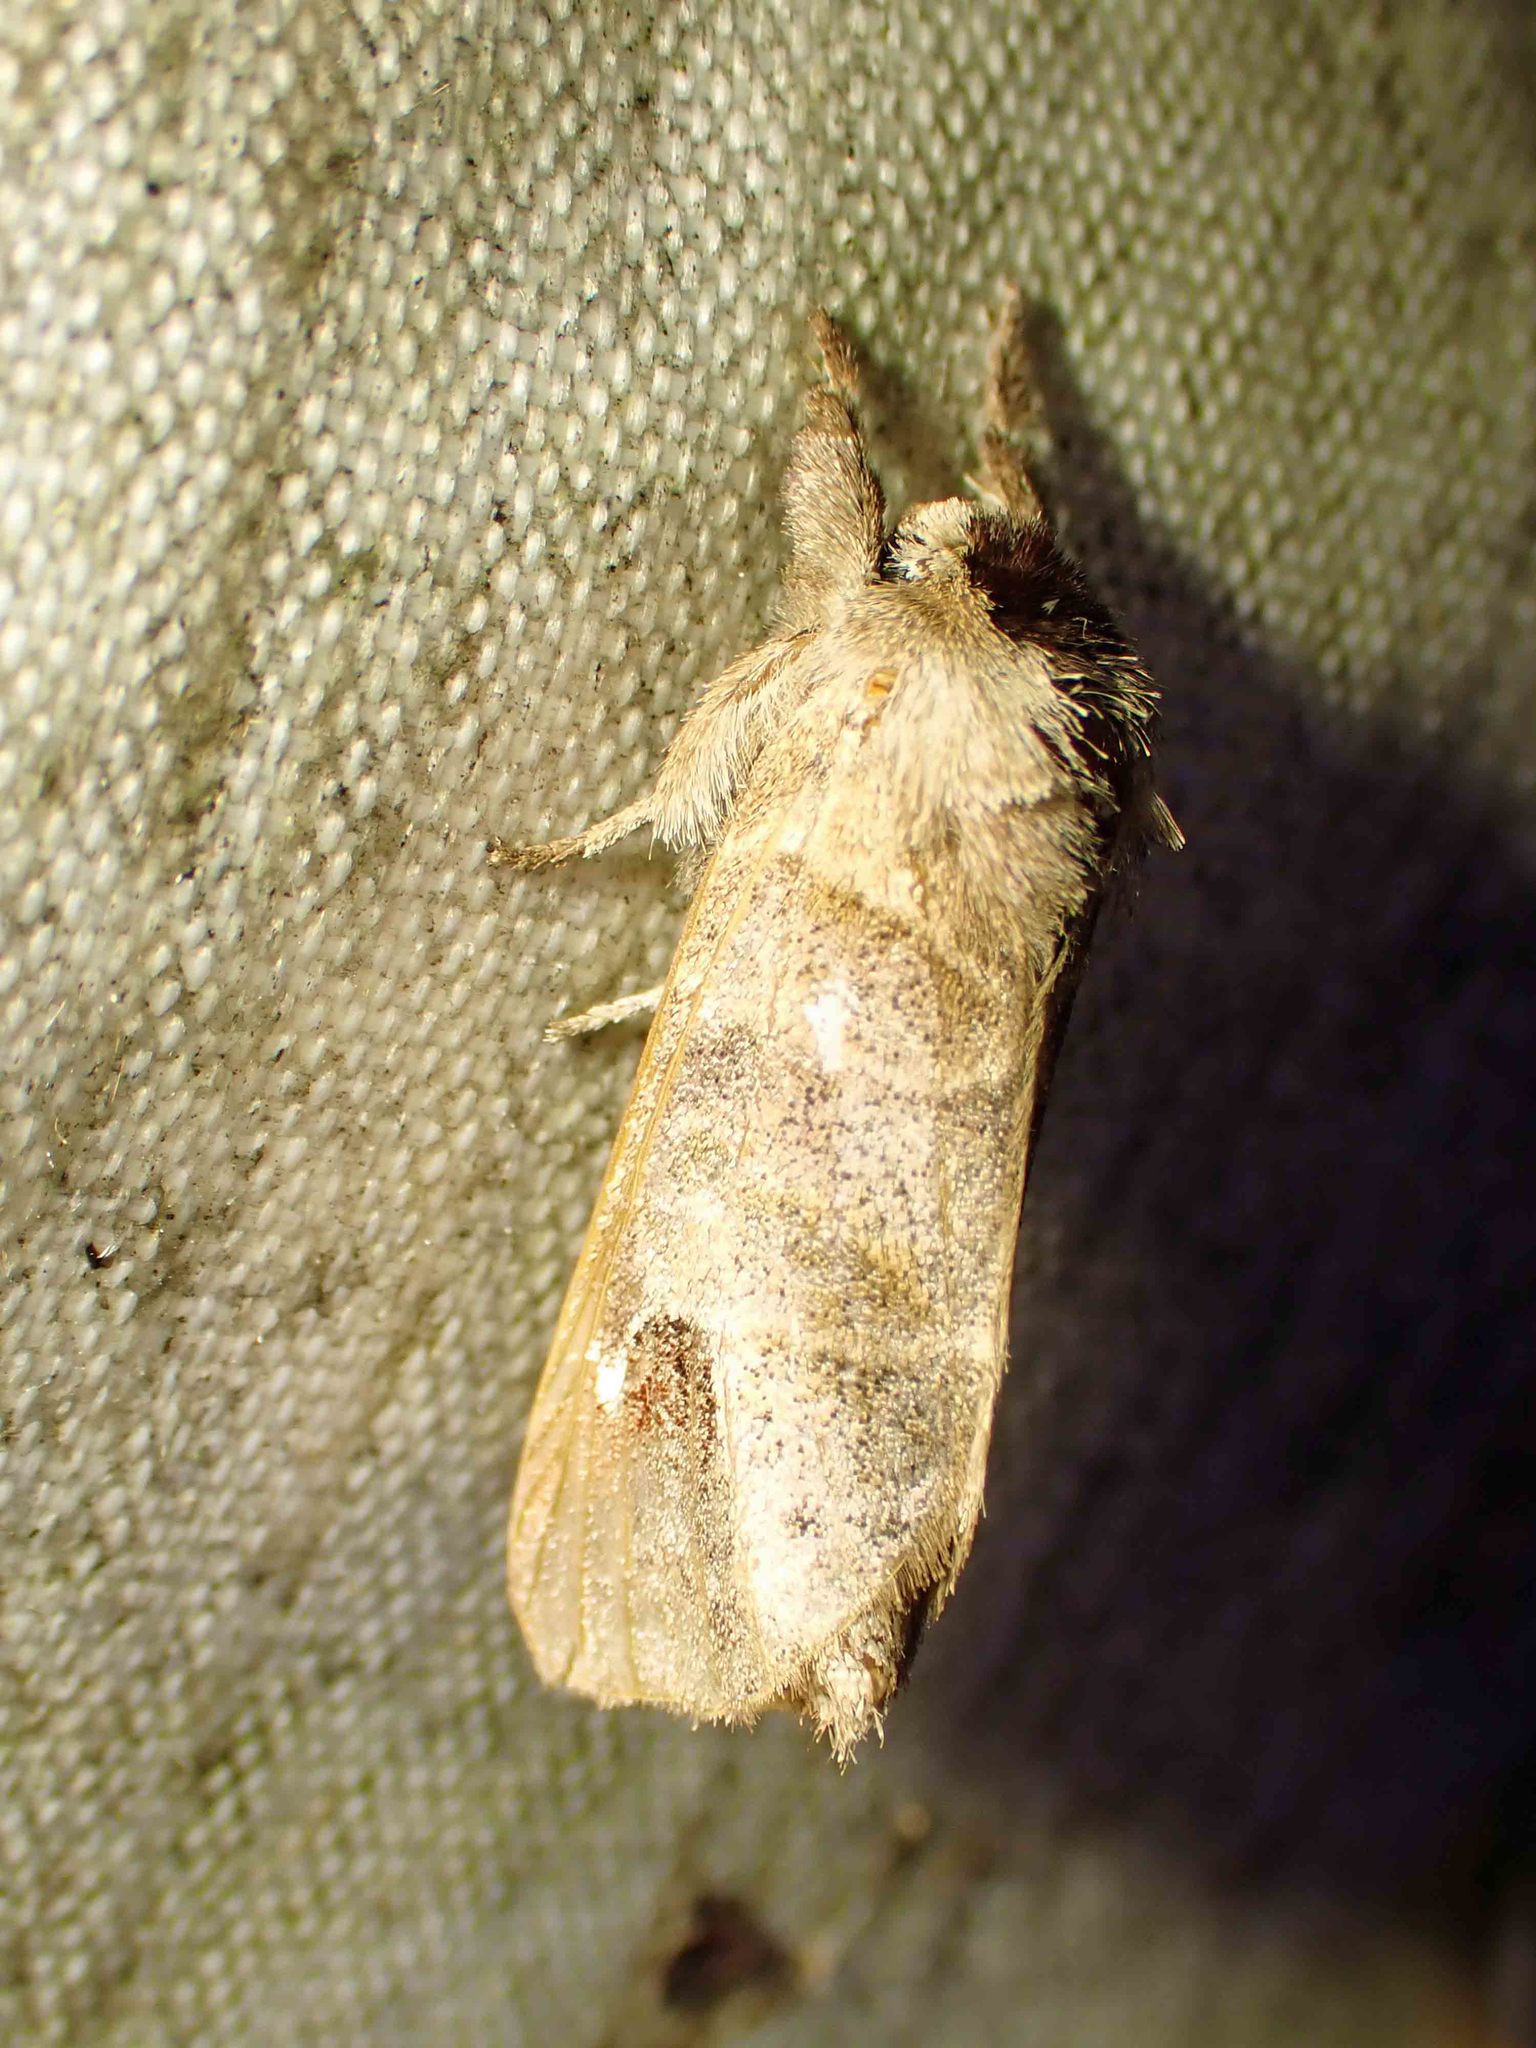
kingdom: Animalia
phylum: Arthropoda
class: Insecta
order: Lepidoptera
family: Notodontidae
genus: Clostera
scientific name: Clostera albosigma
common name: Sigmoid prominent
